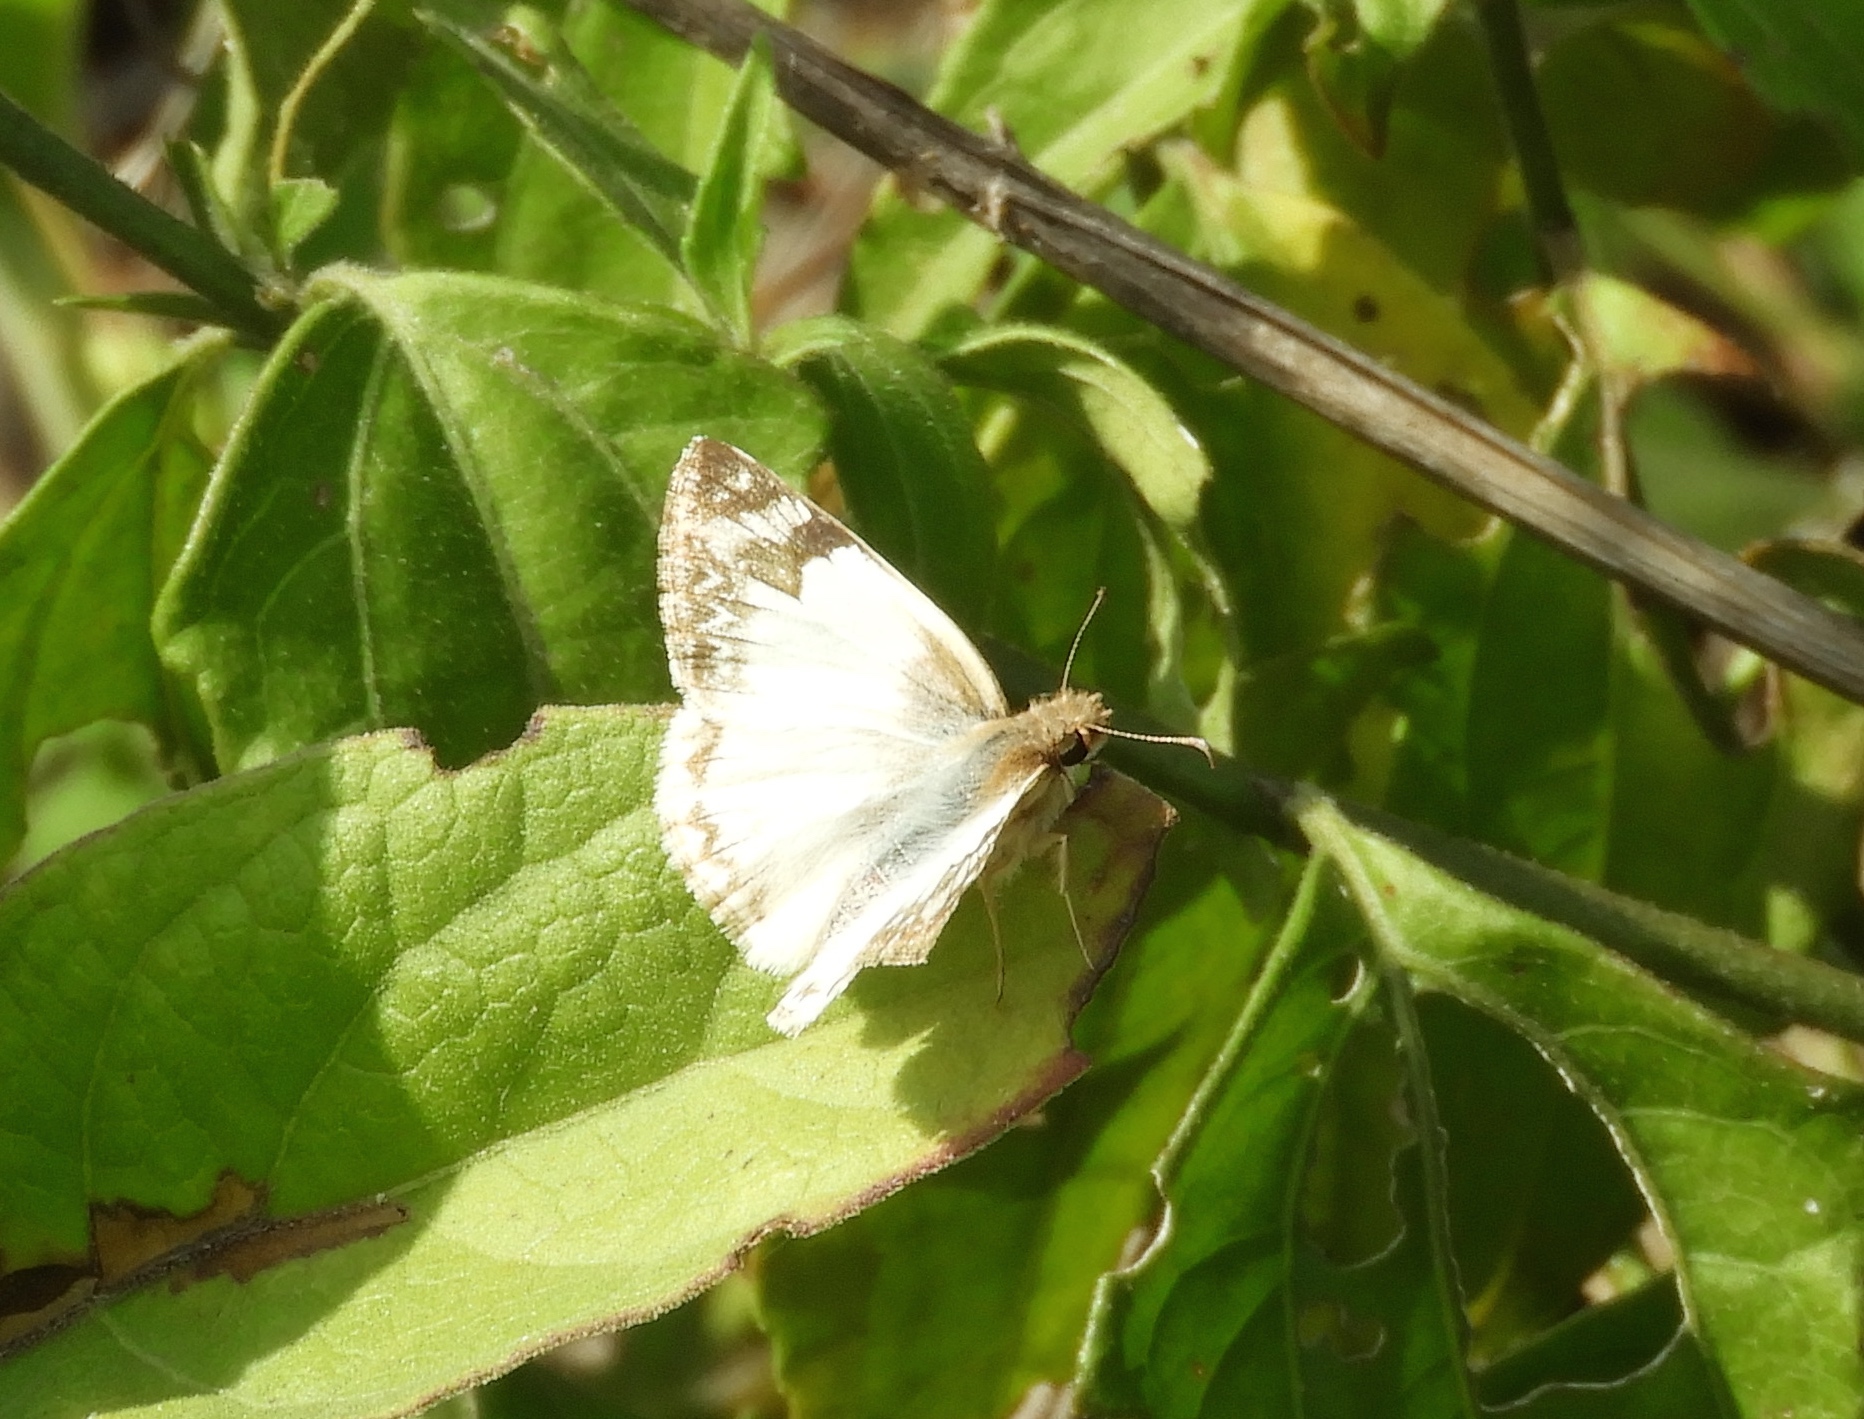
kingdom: Animalia
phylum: Arthropoda
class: Insecta
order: Lepidoptera
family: Hesperiidae
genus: Heliopetes
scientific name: Heliopetes laviana
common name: Laviana white-skipper
